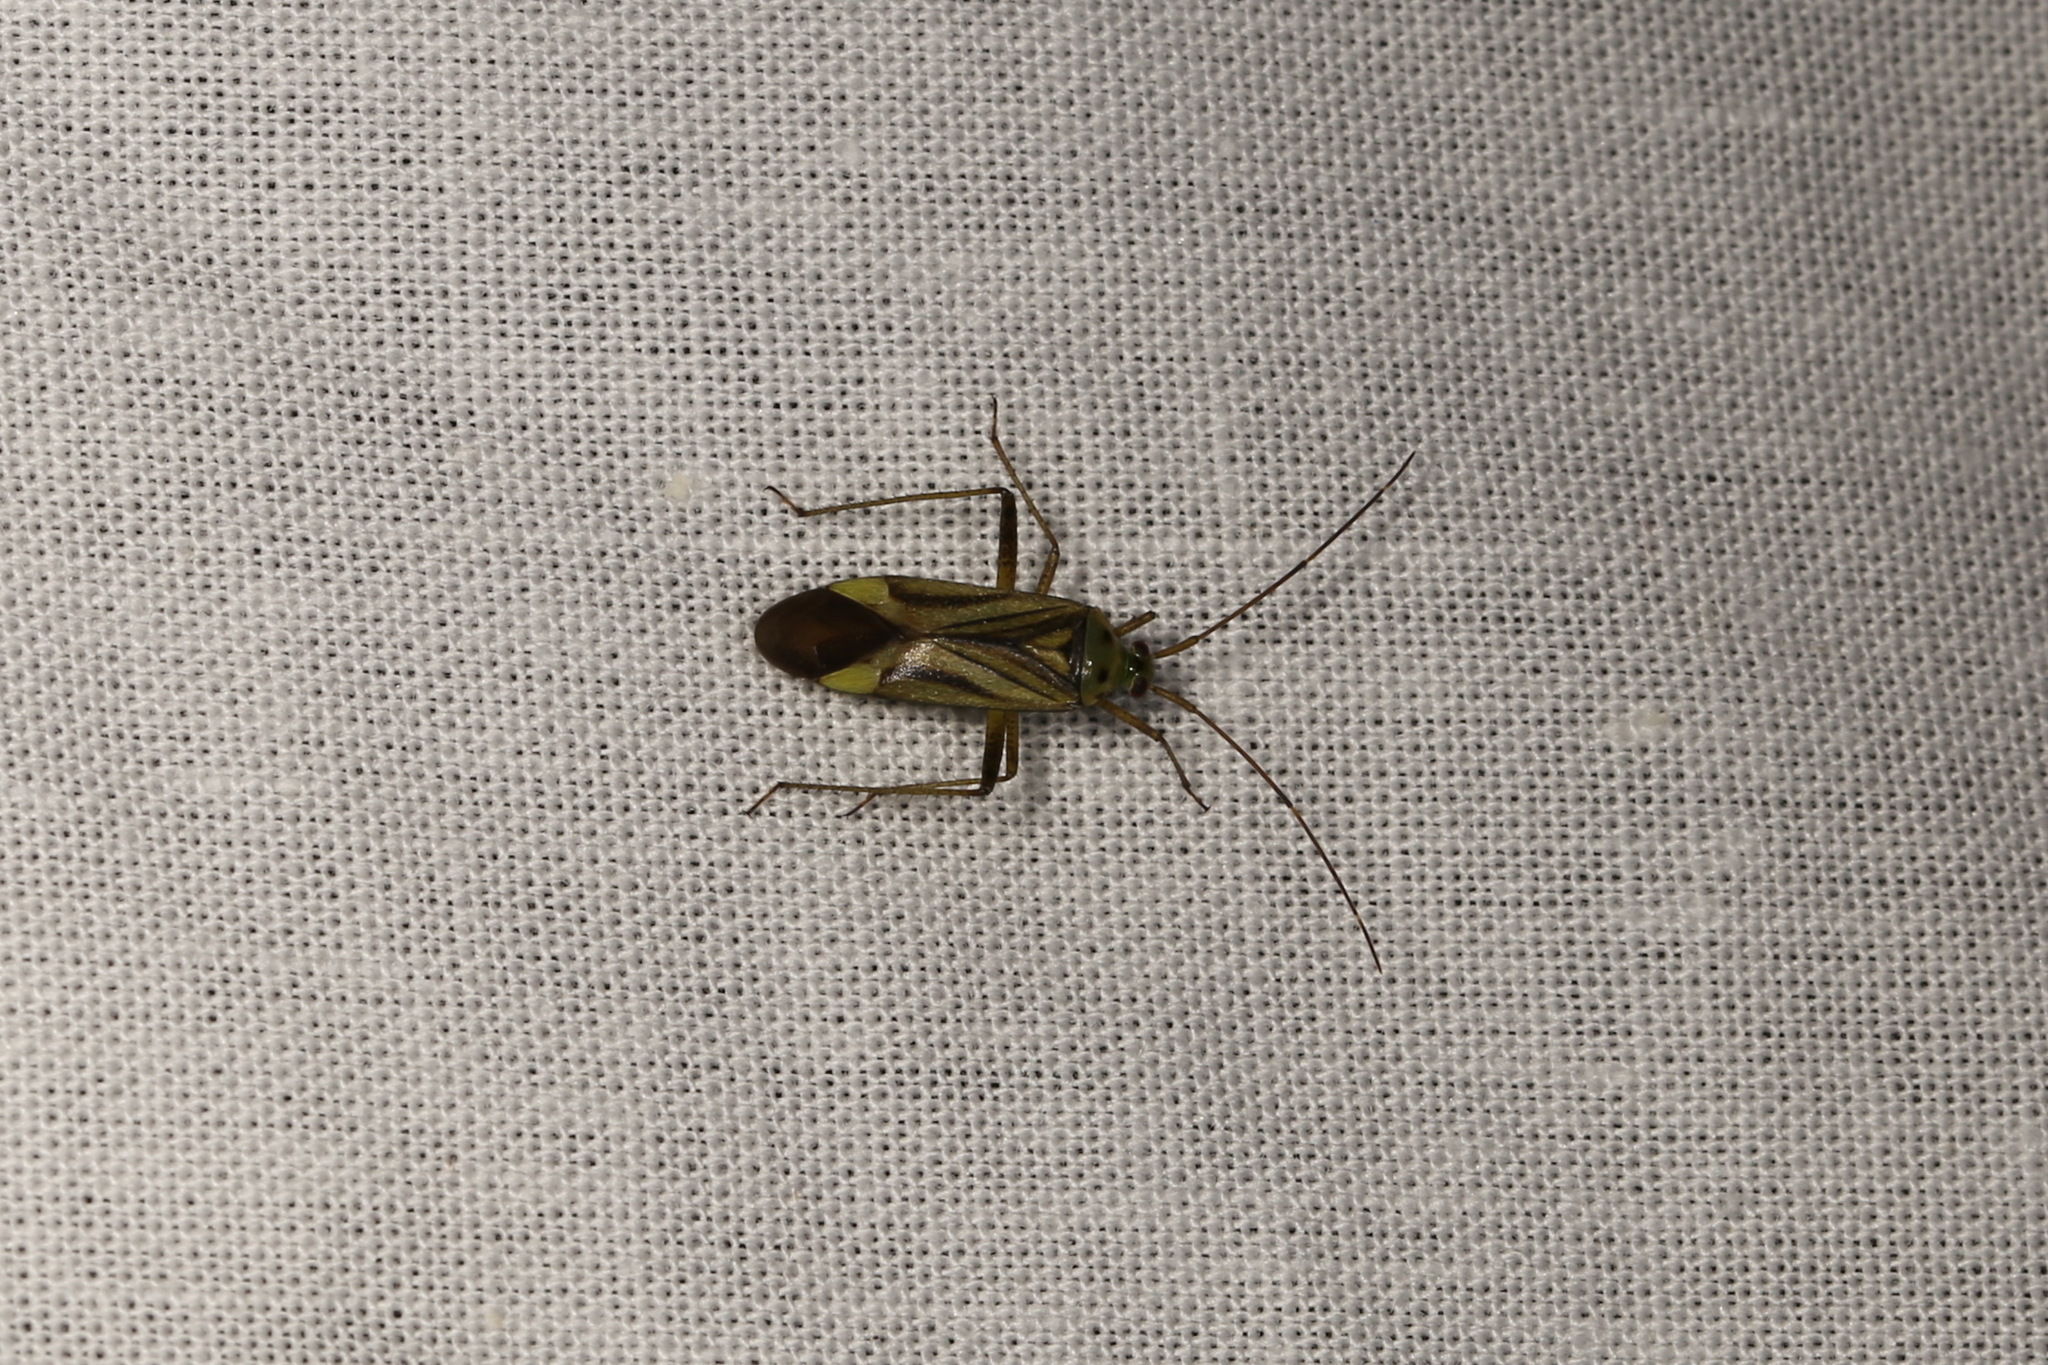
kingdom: Animalia
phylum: Arthropoda
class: Insecta
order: Hemiptera
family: Miridae
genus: Adelphocoris
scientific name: Adelphocoris quadripunctatus
